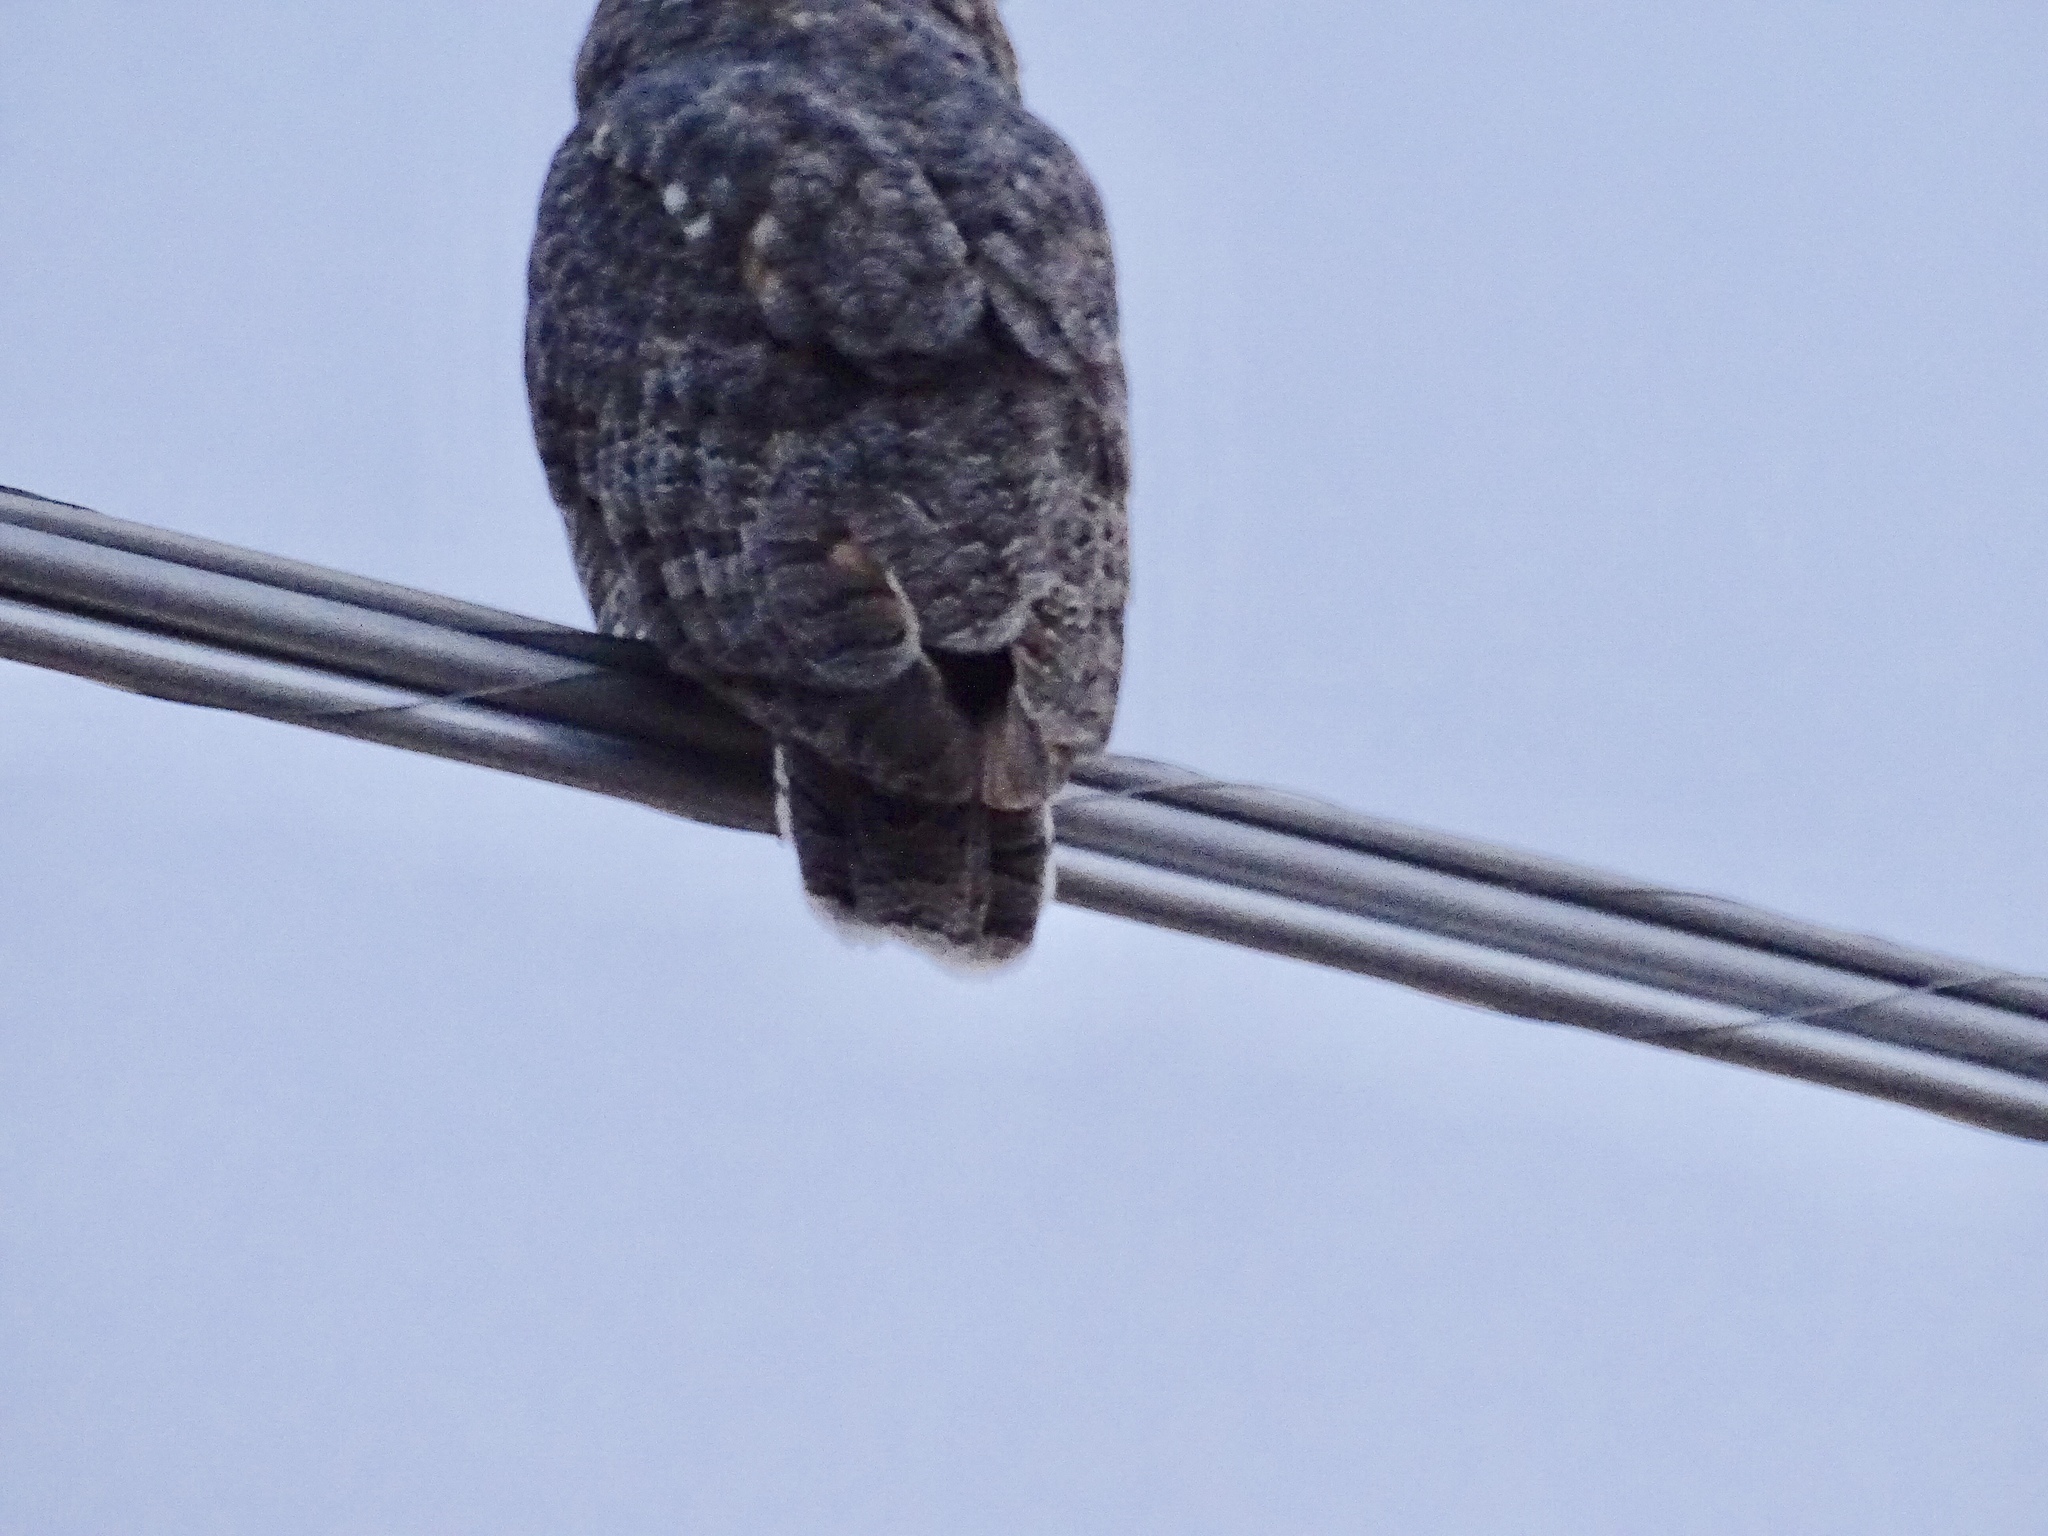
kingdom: Animalia
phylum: Chordata
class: Aves
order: Strigiformes
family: Strigidae
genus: Bubo
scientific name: Bubo virginianus
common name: Great horned owl
